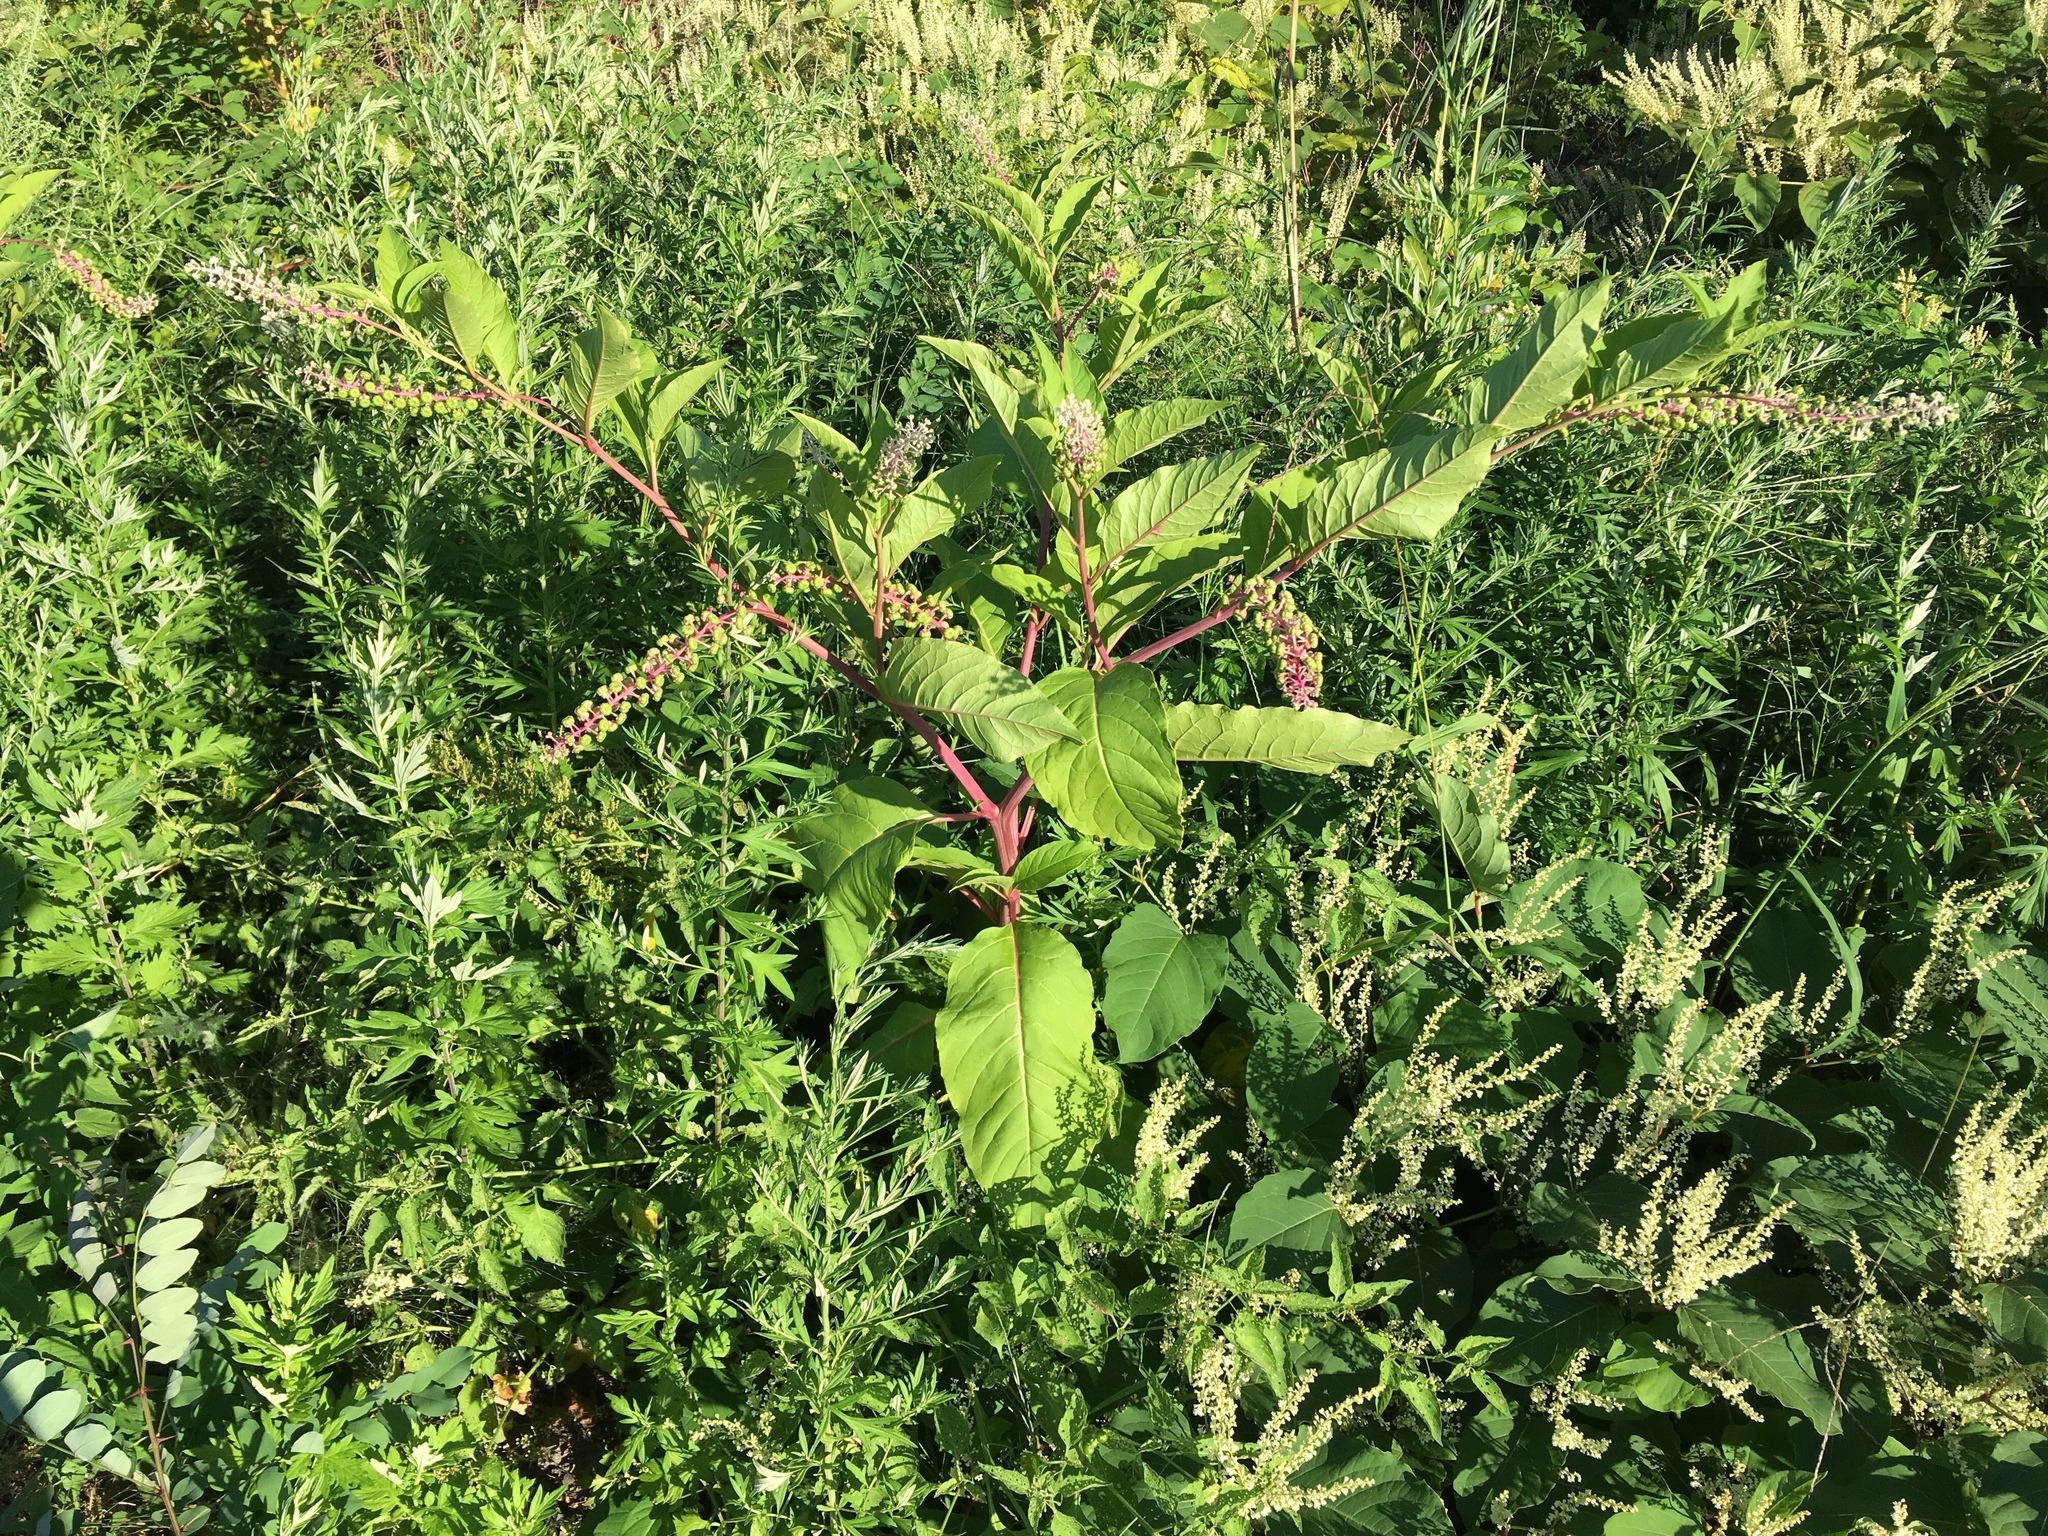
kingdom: Plantae
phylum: Tracheophyta
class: Magnoliopsida
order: Caryophyllales
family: Phytolaccaceae
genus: Phytolacca
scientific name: Phytolacca americana
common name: American pokeweed
